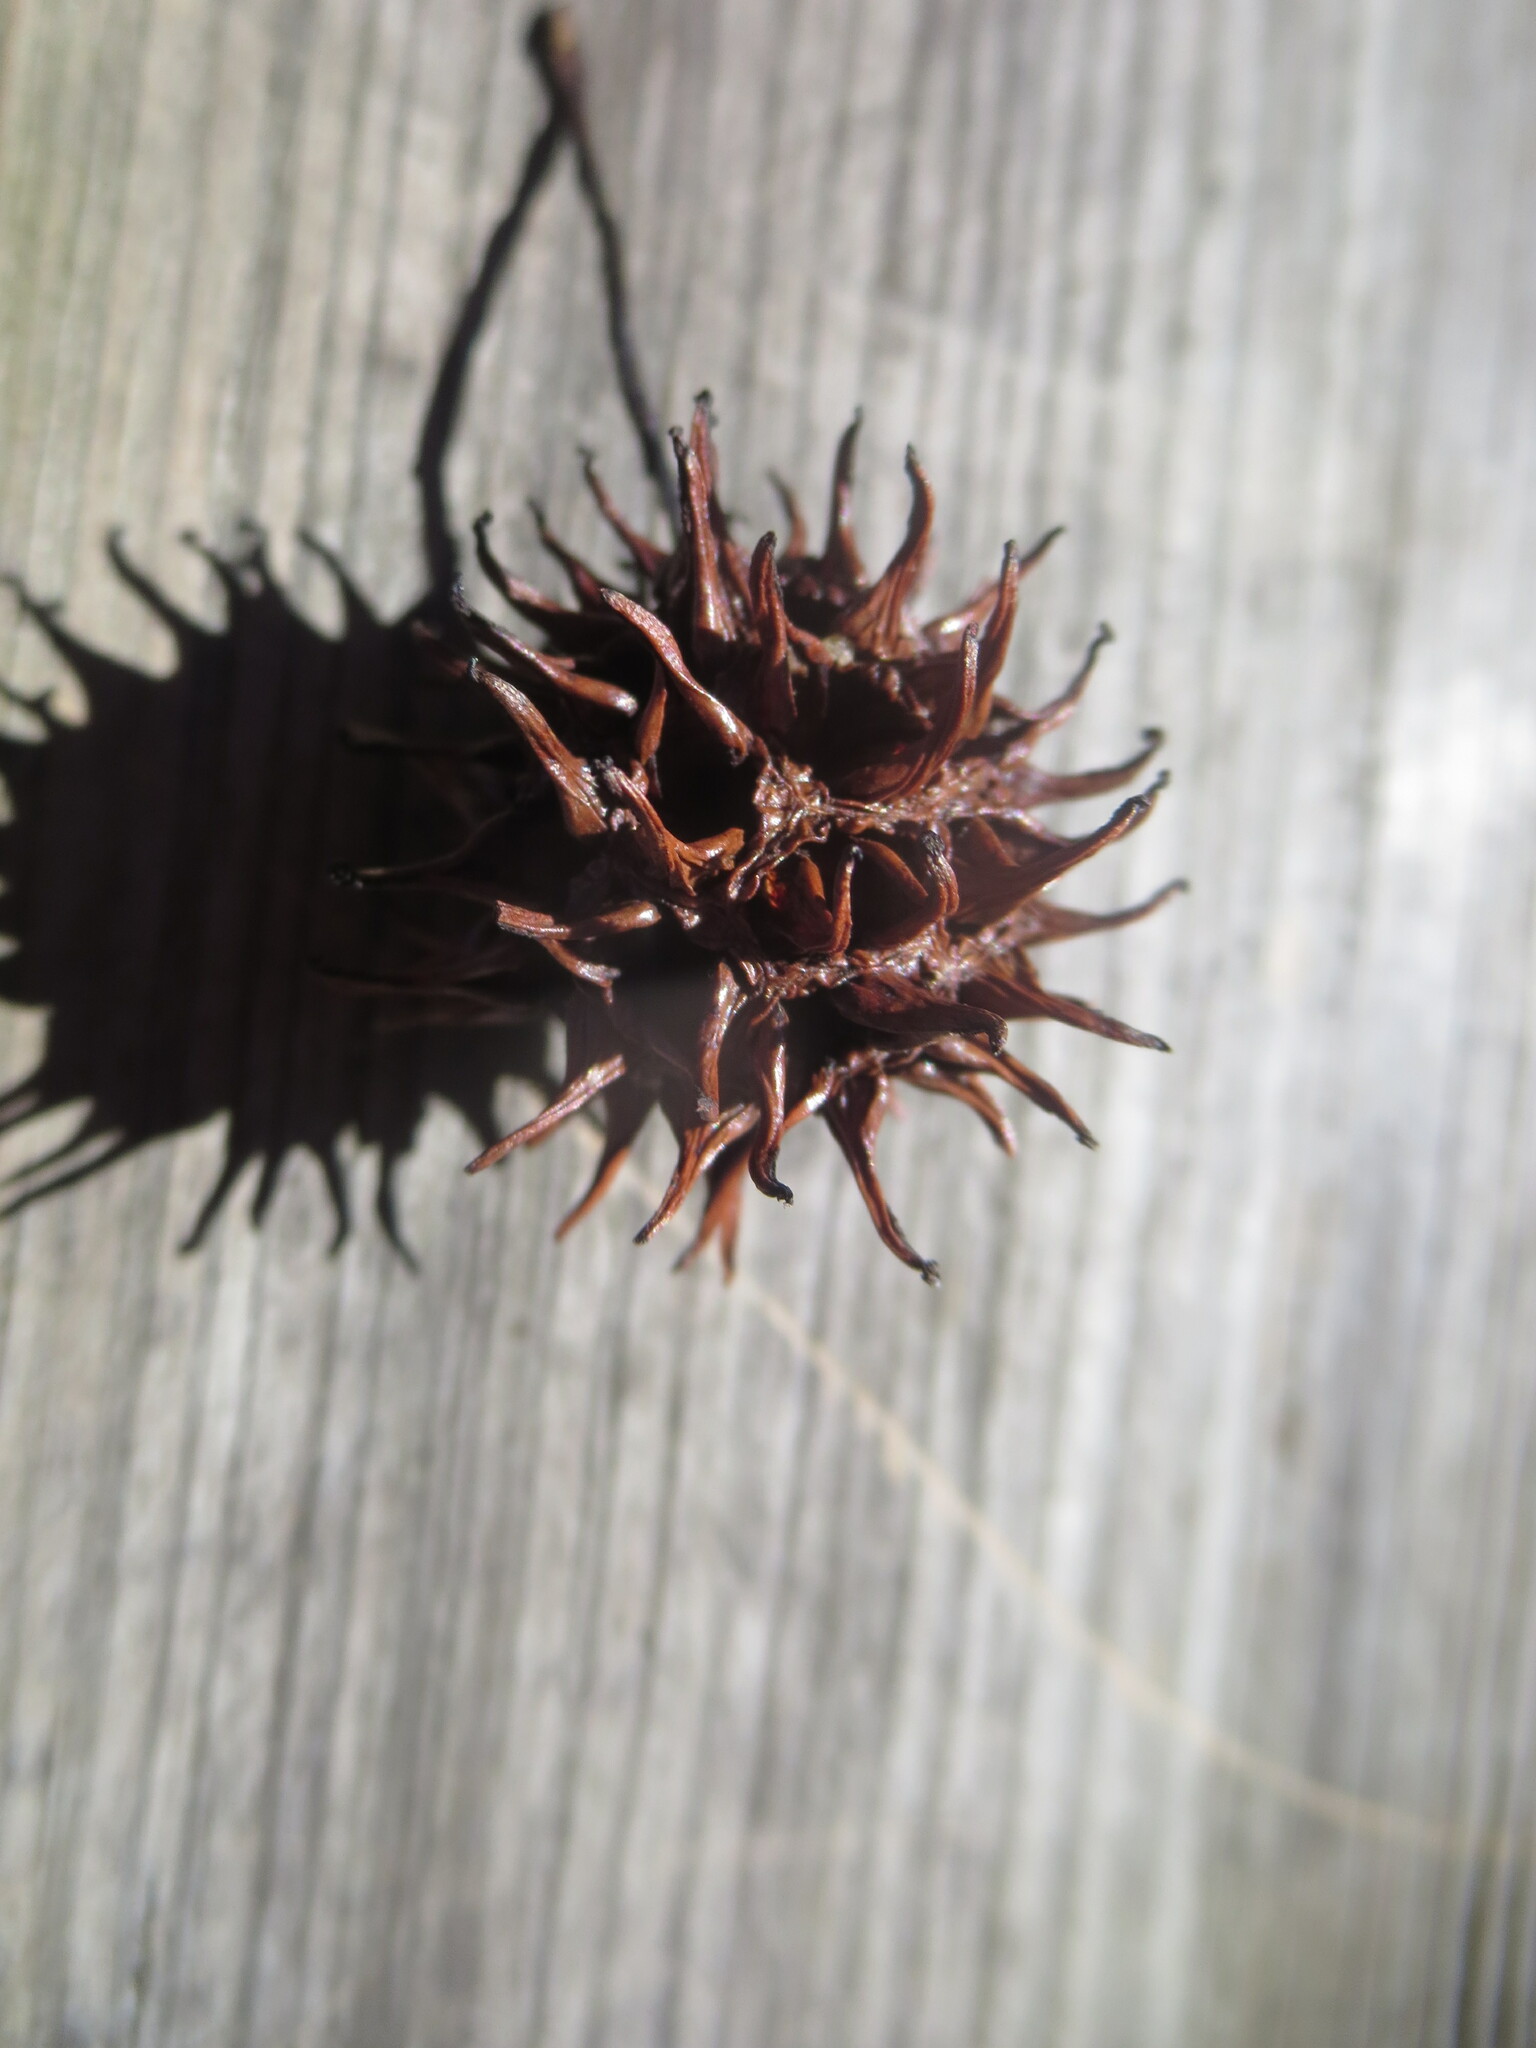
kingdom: Plantae
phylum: Tracheophyta
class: Magnoliopsida
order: Saxifragales
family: Altingiaceae
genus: Liquidambar
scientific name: Liquidambar styraciflua
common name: Sweet gum
